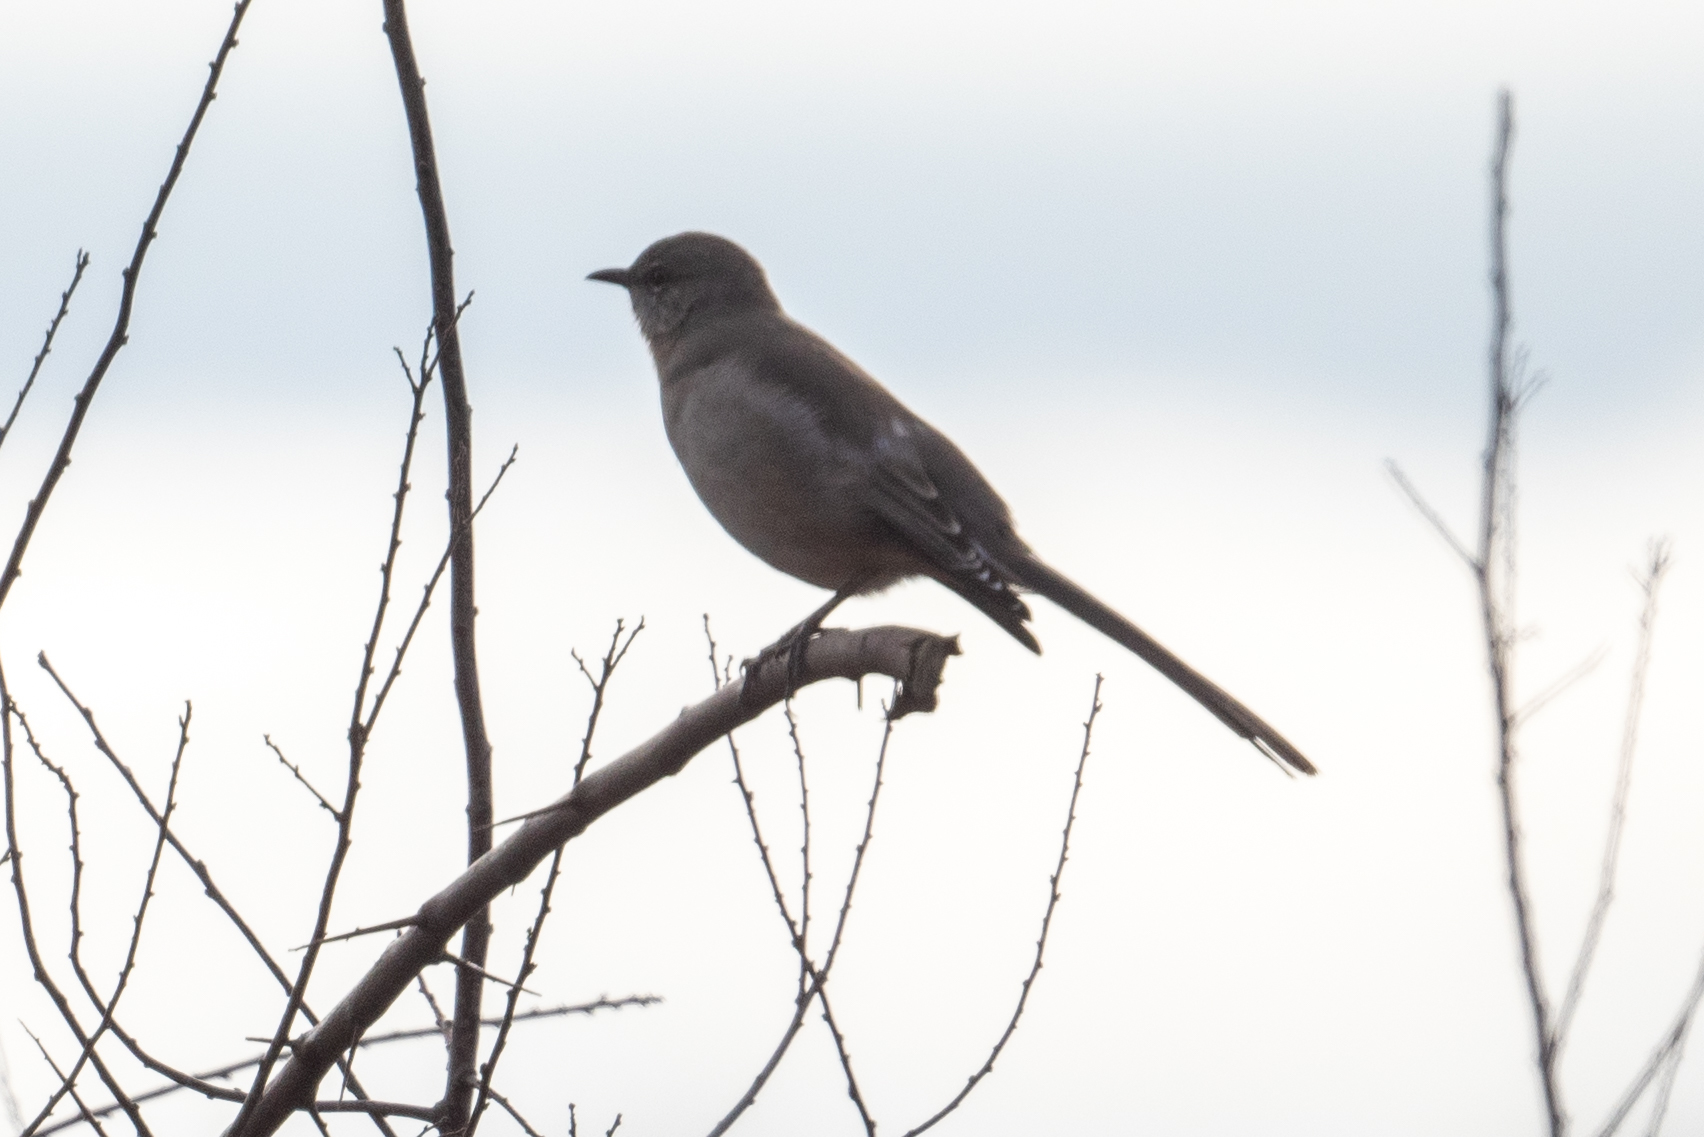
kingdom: Animalia
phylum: Chordata
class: Aves
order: Passeriformes
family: Mimidae
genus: Mimus
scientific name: Mimus polyglottos
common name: Northern mockingbird
